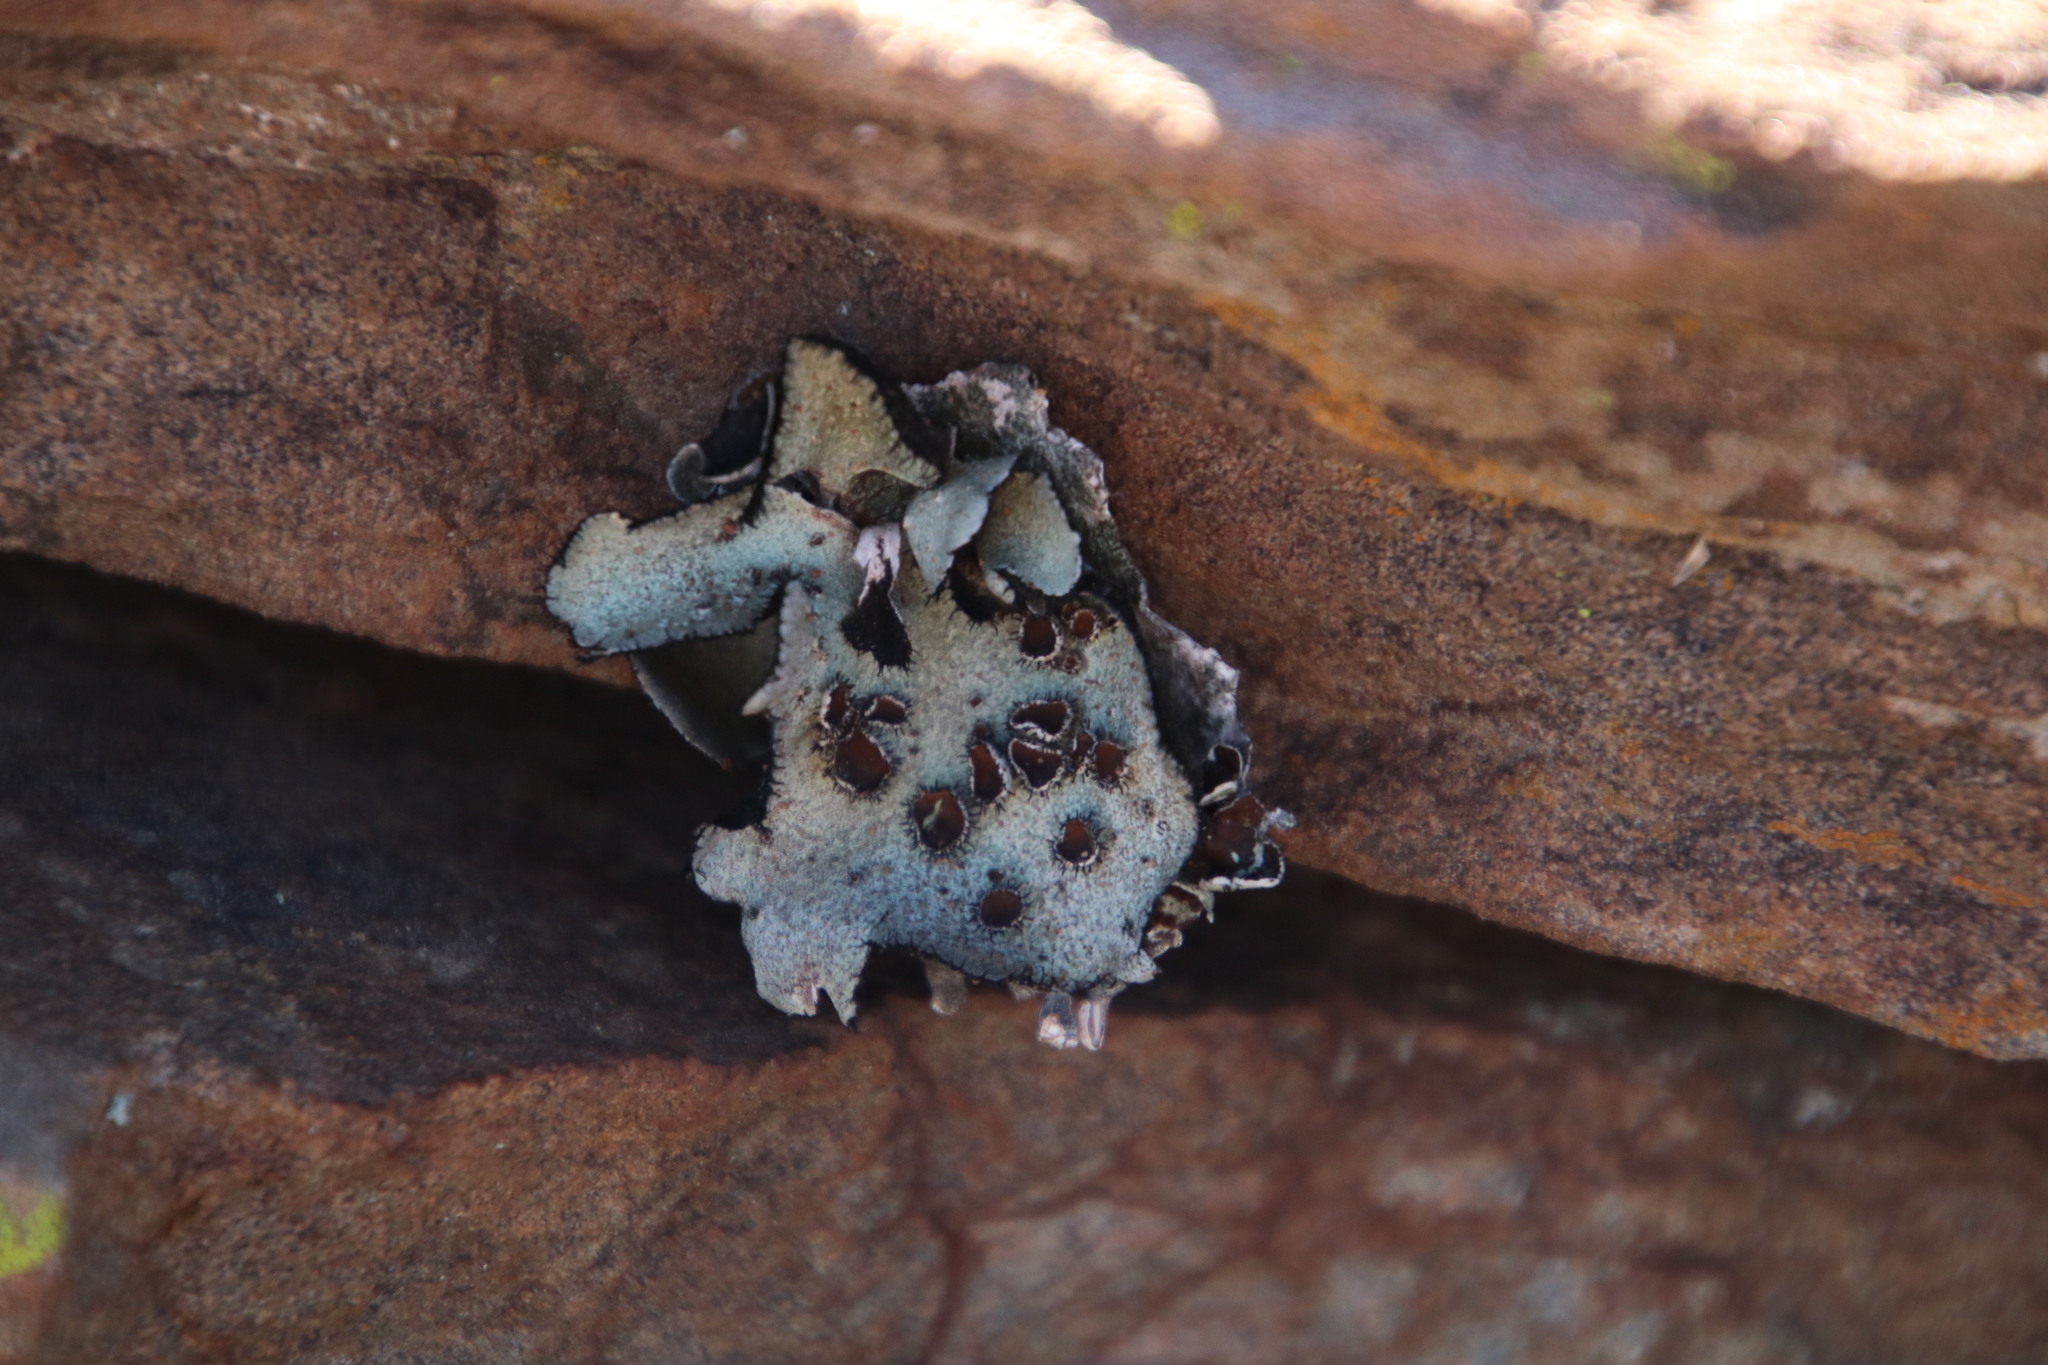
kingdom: Fungi
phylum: Ascomycota
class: Lecanoromycetes
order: Lecanorales
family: Parmeliaceae
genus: Xanthoparmelia
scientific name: Xanthoparmelia hottentotta
